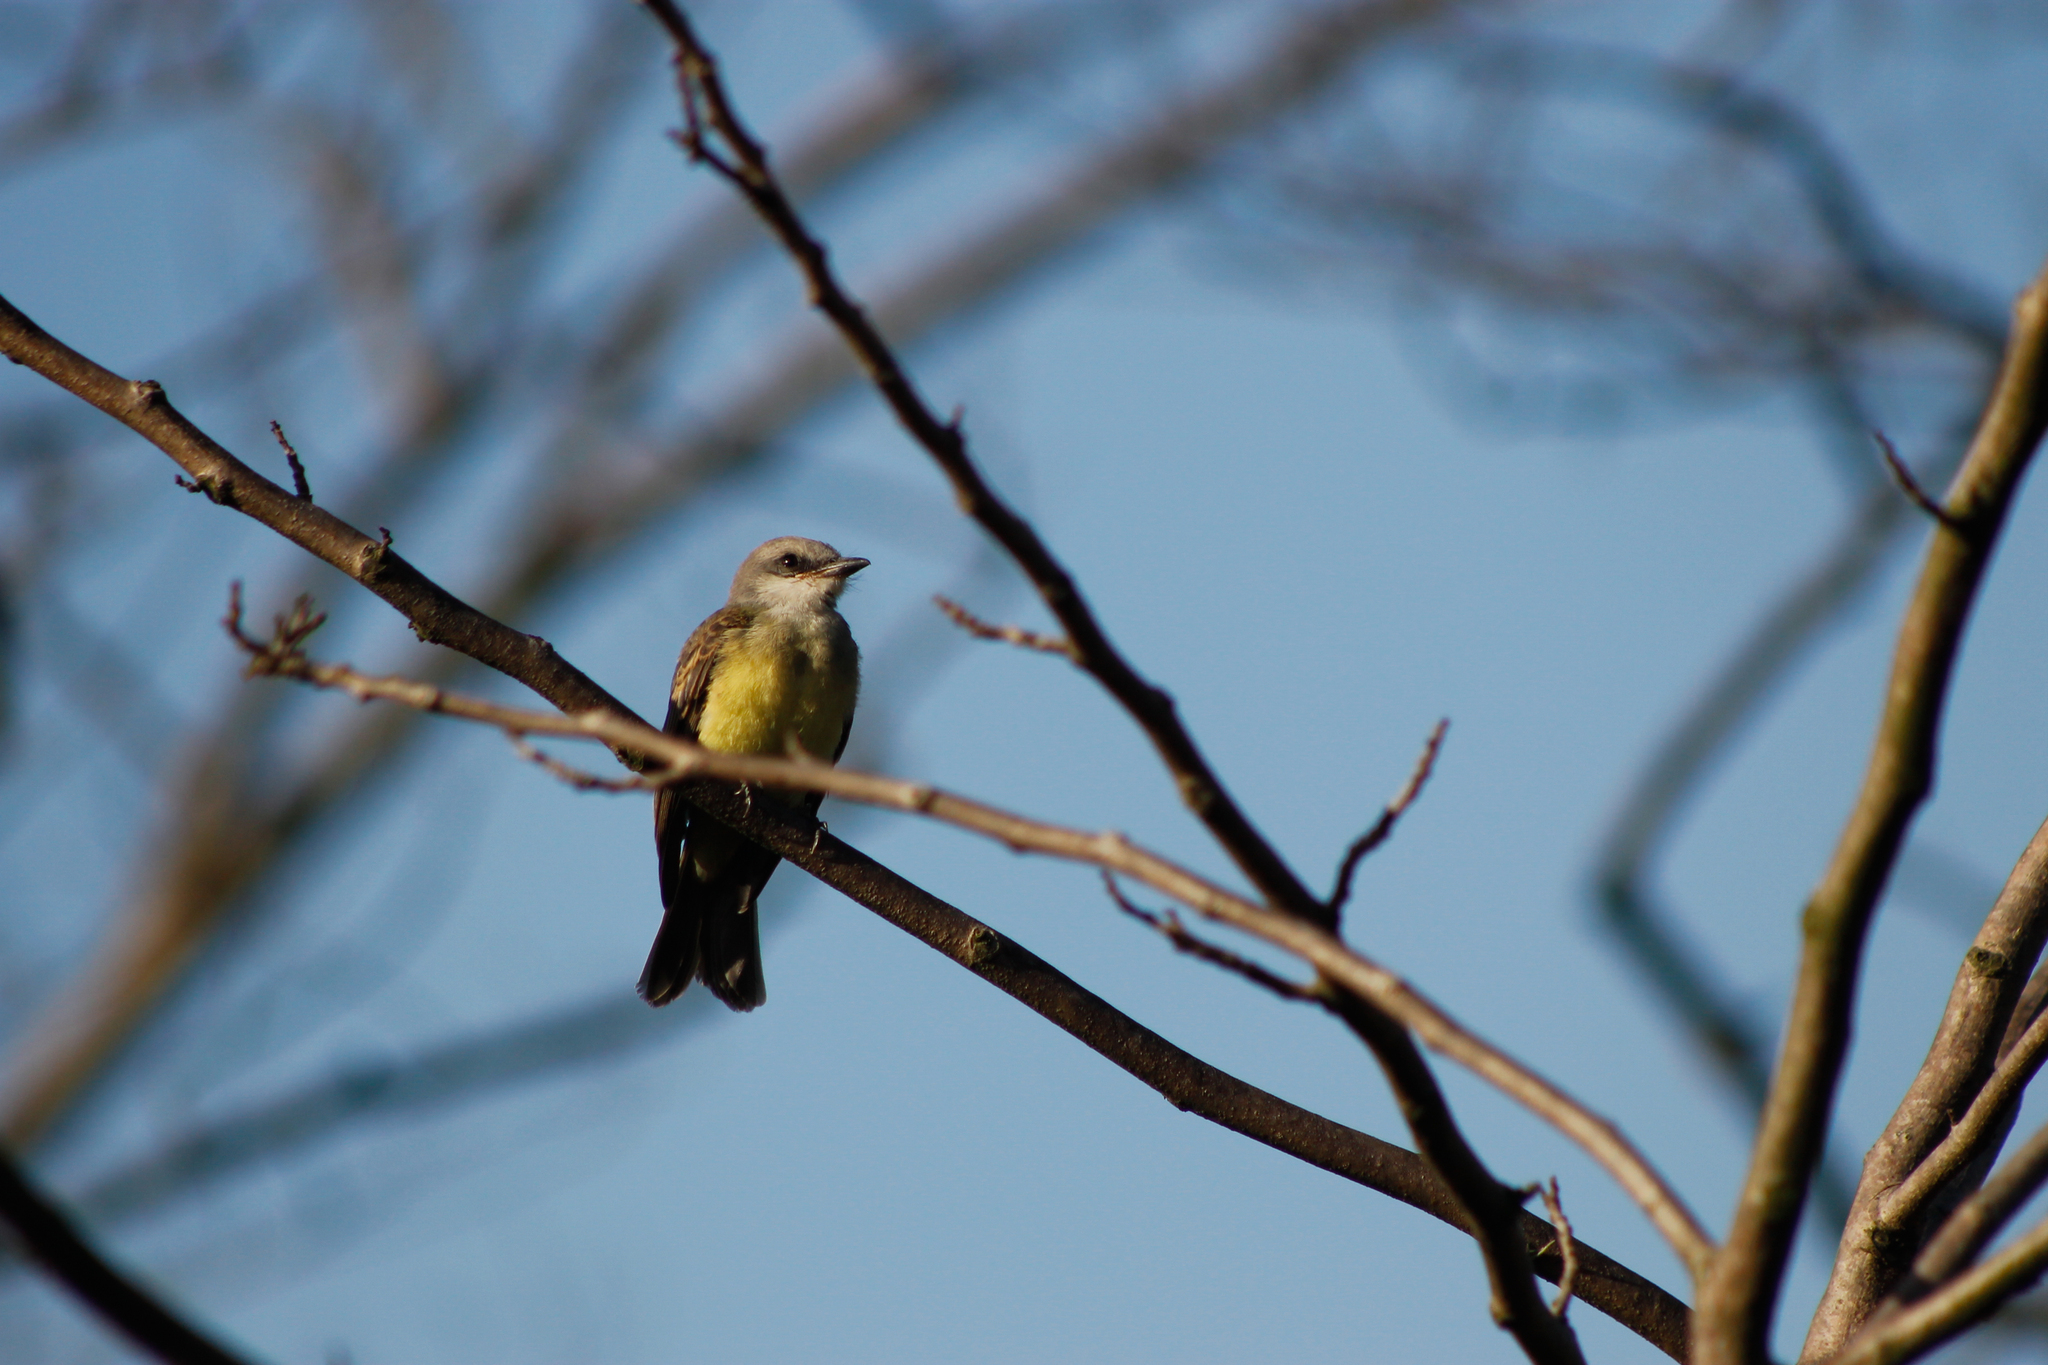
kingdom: Animalia
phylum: Chordata
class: Aves
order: Passeriformes
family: Tyrannidae
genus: Tyrannus
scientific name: Tyrannus melancholicus
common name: Tropical kingbird
